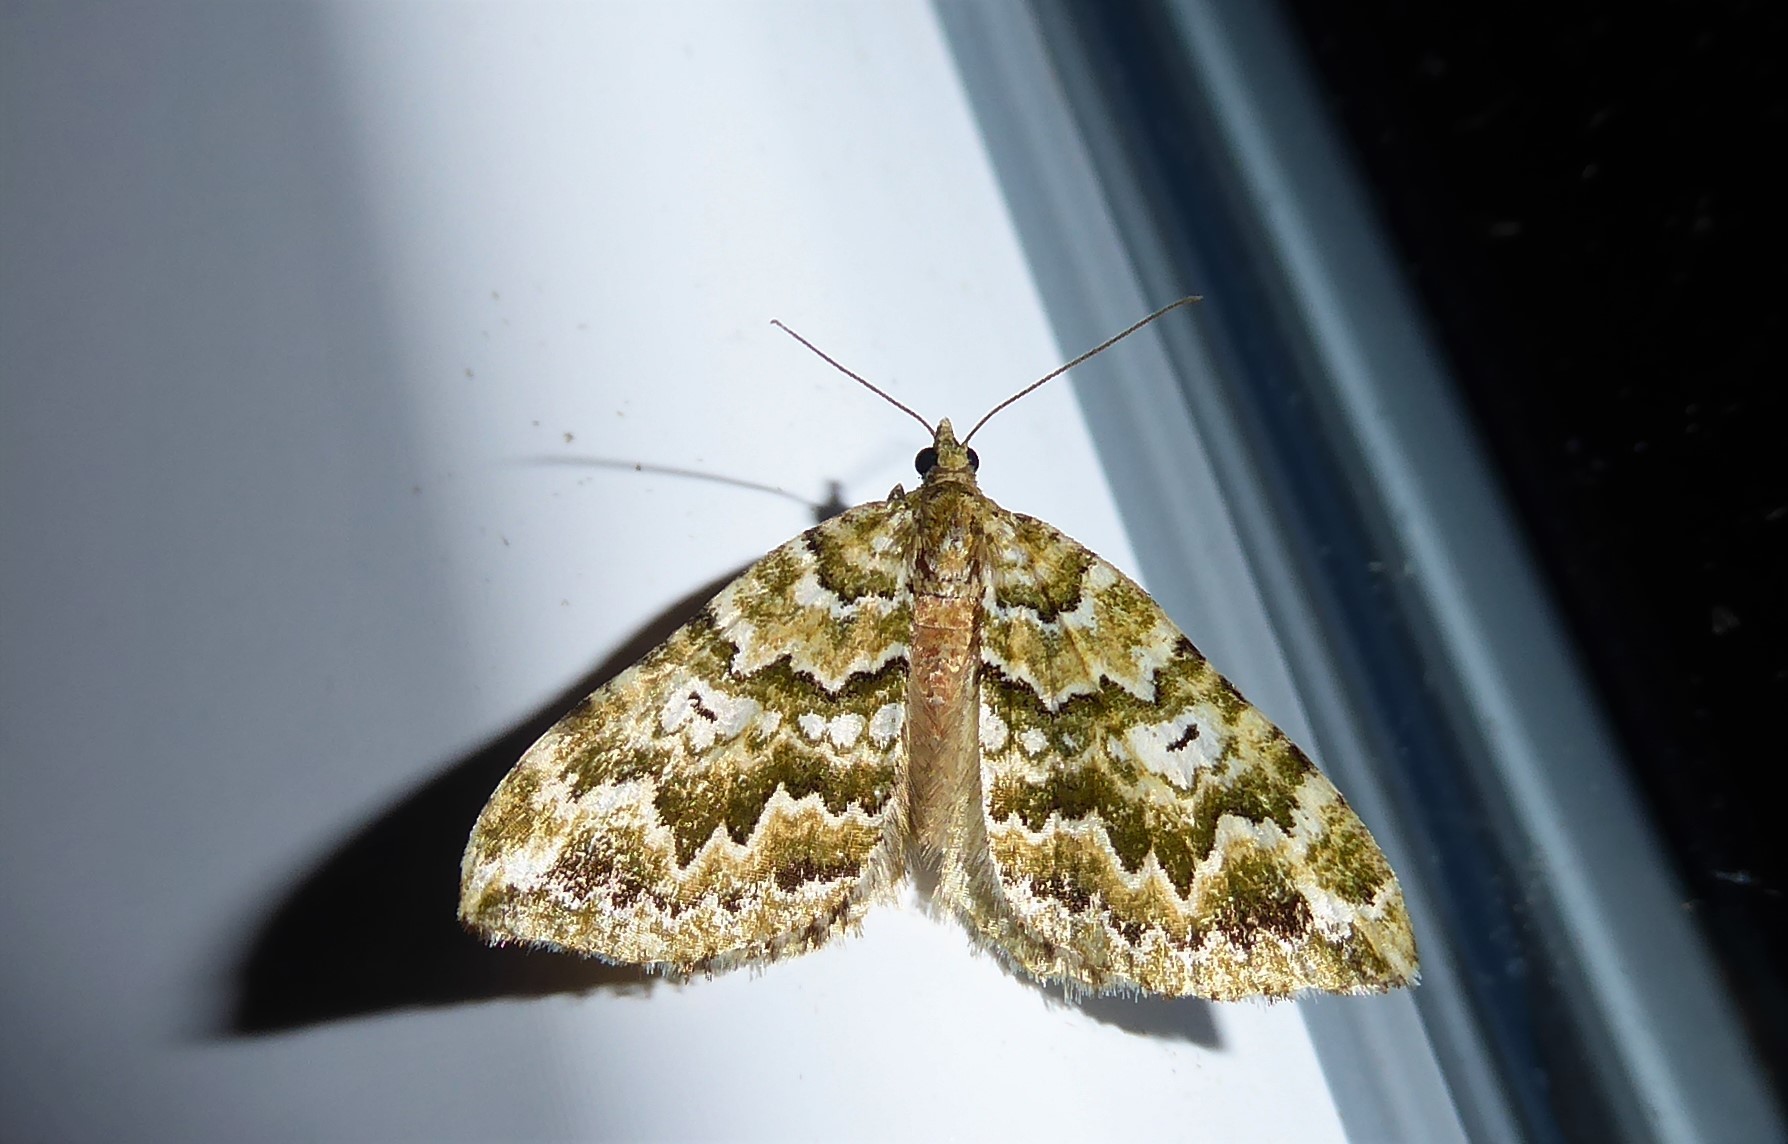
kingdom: Animalia
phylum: Arthropoda
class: Insecta
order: Lepidoptera
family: Geometridae
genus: Asaphodes
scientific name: Asaphodes beata
